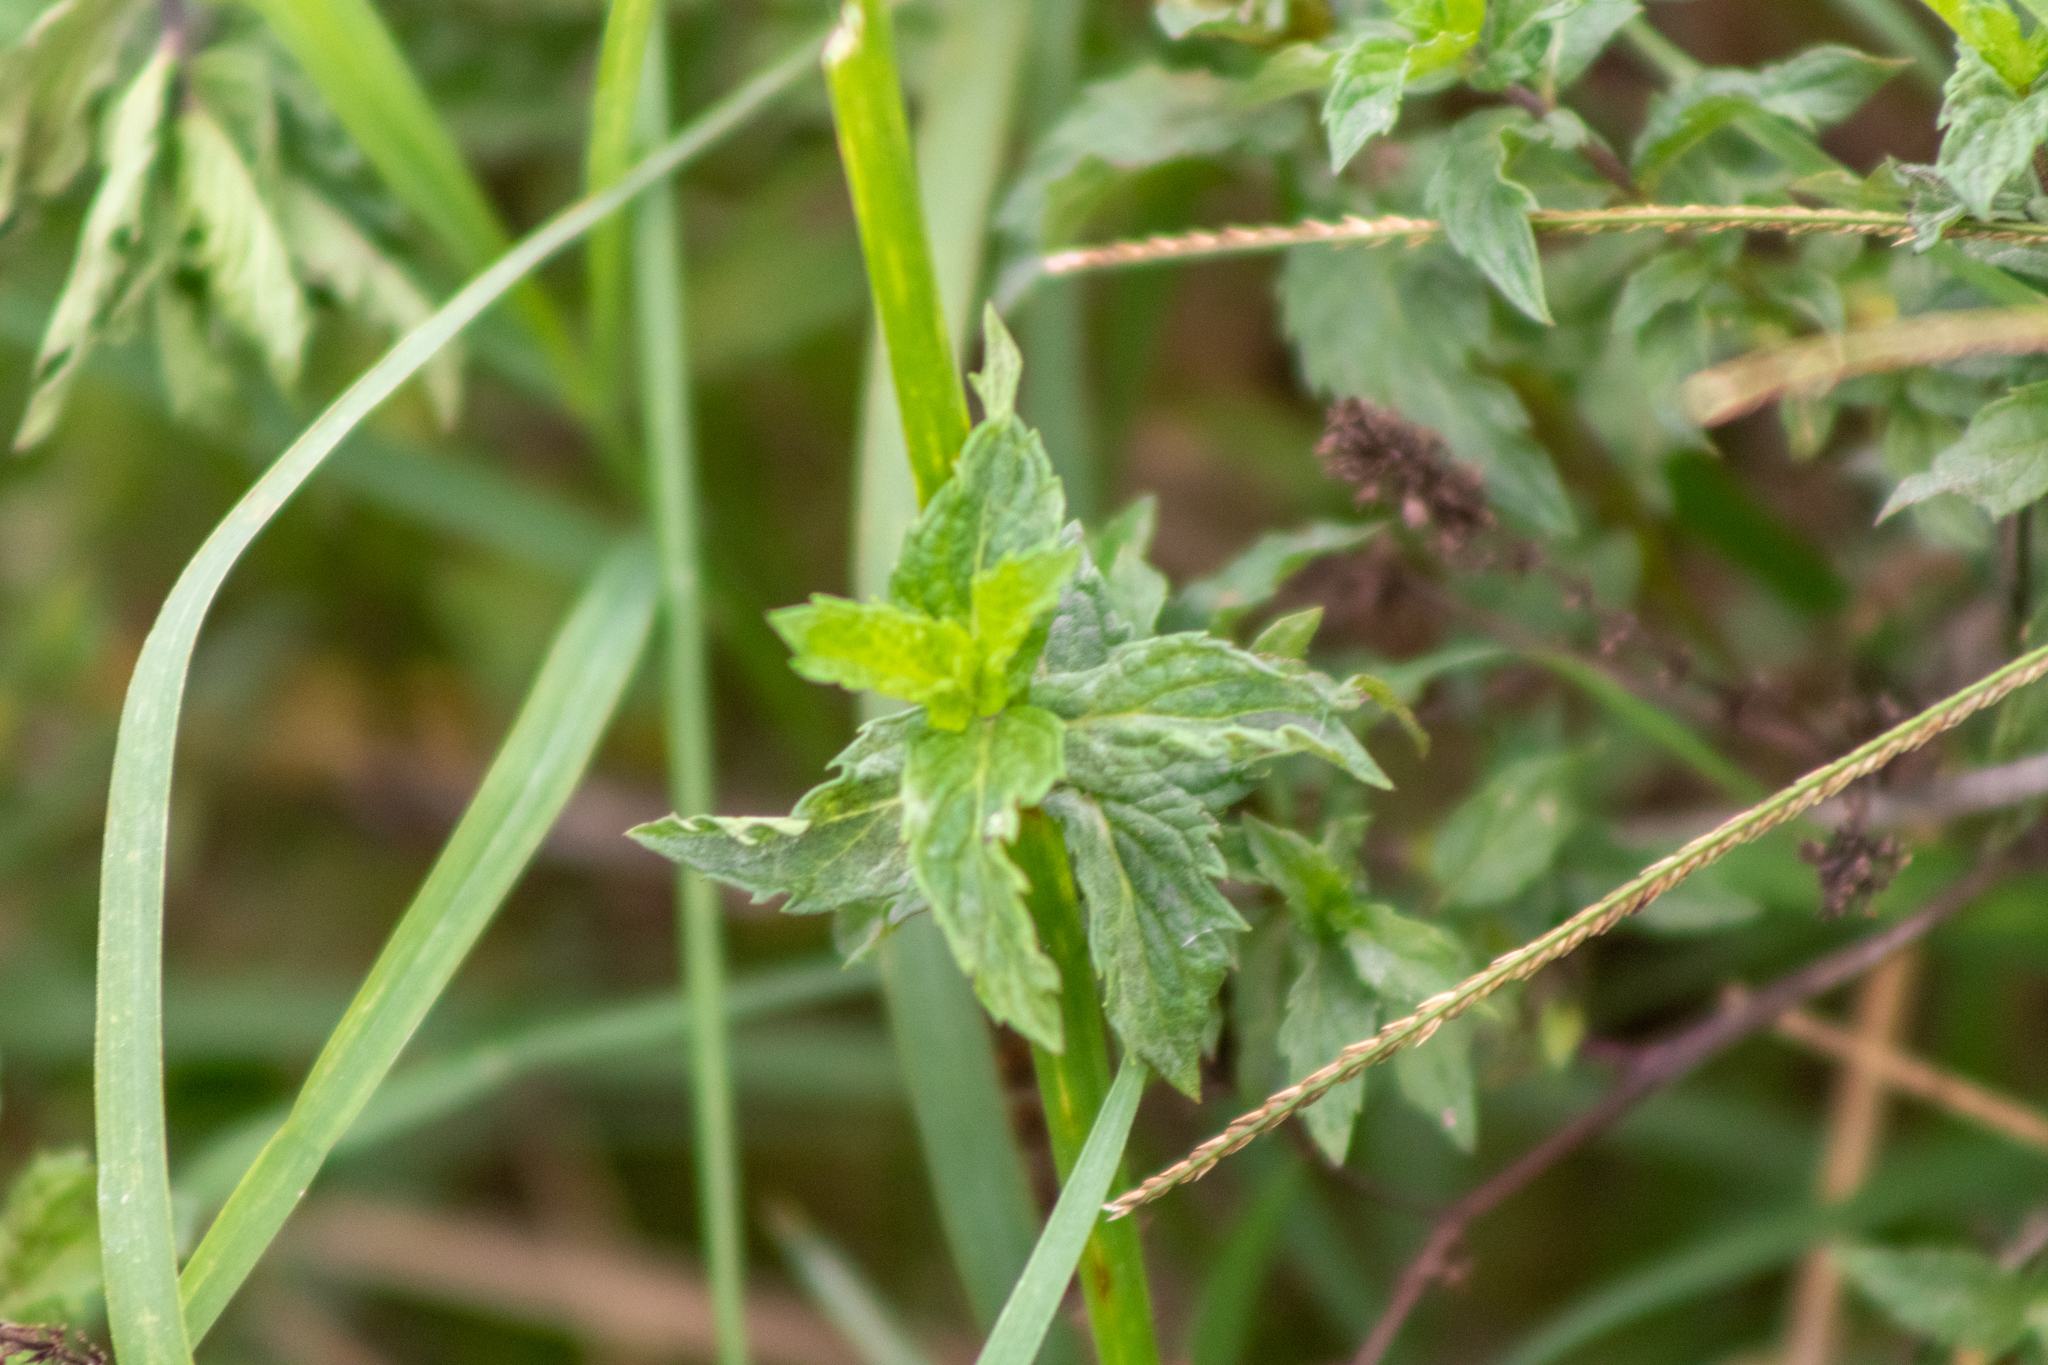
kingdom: Plantae
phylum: Tracheophyta
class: Magnoliopsida
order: Lamiales
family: Lamiaceae
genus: Mentha
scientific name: Mentha spicata
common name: Spearmint
